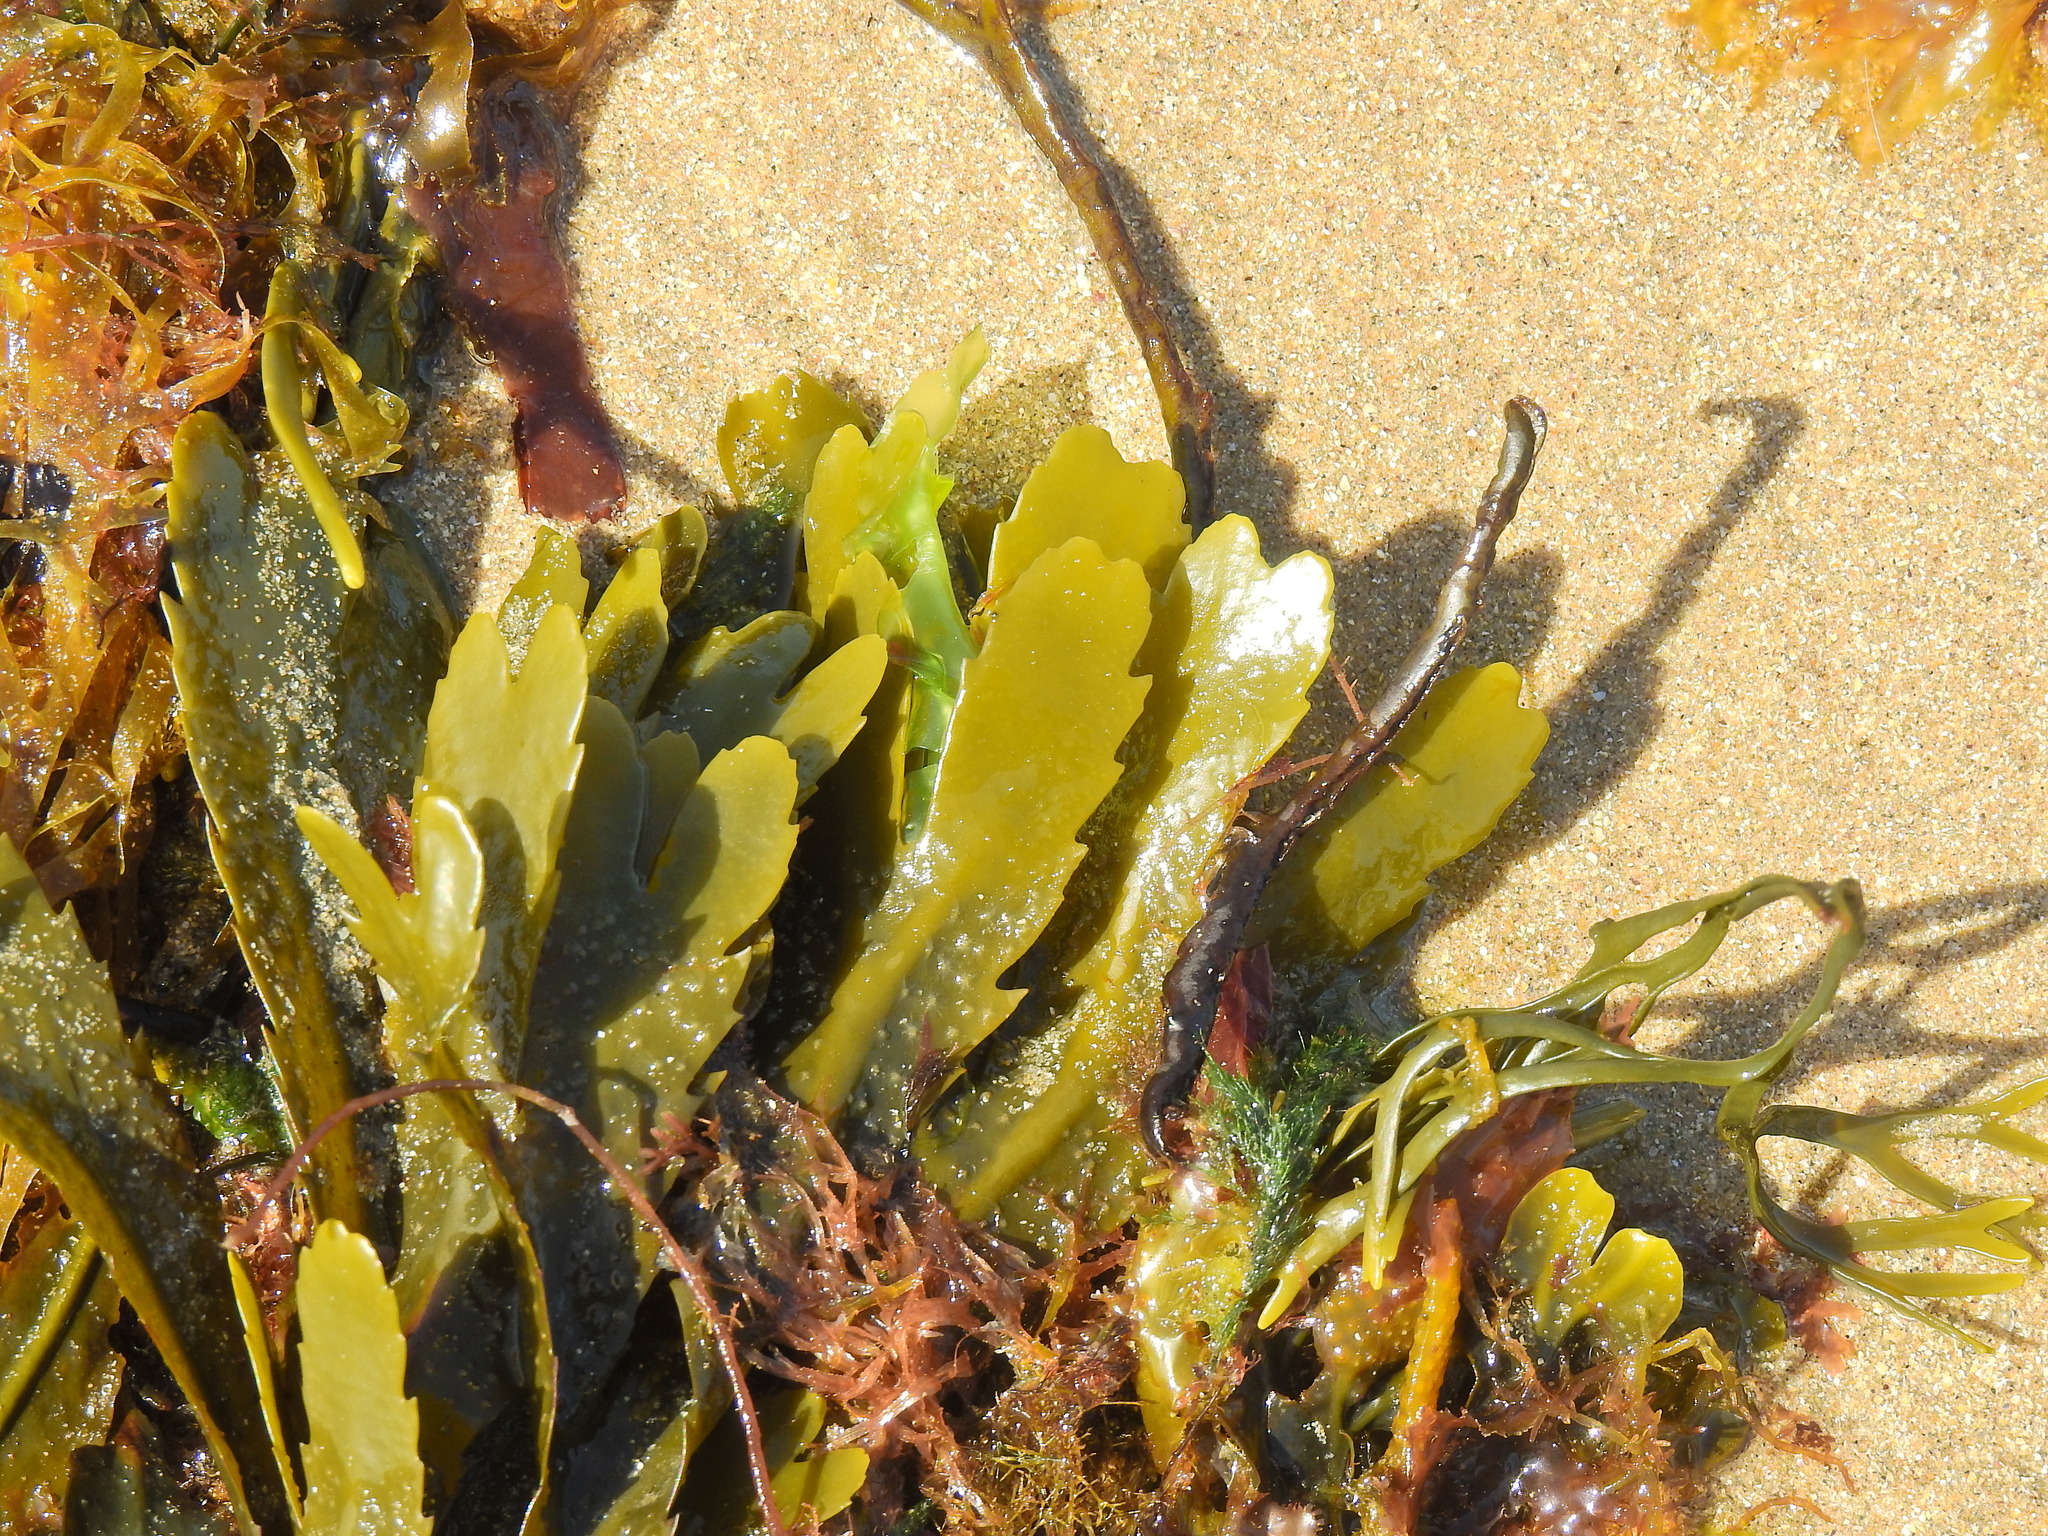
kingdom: Chromista
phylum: Ochrophyta
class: Phaeophyceae
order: Fucales
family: Fucaceae
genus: Fucus
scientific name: Fucus serratus
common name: Toothed wrack
